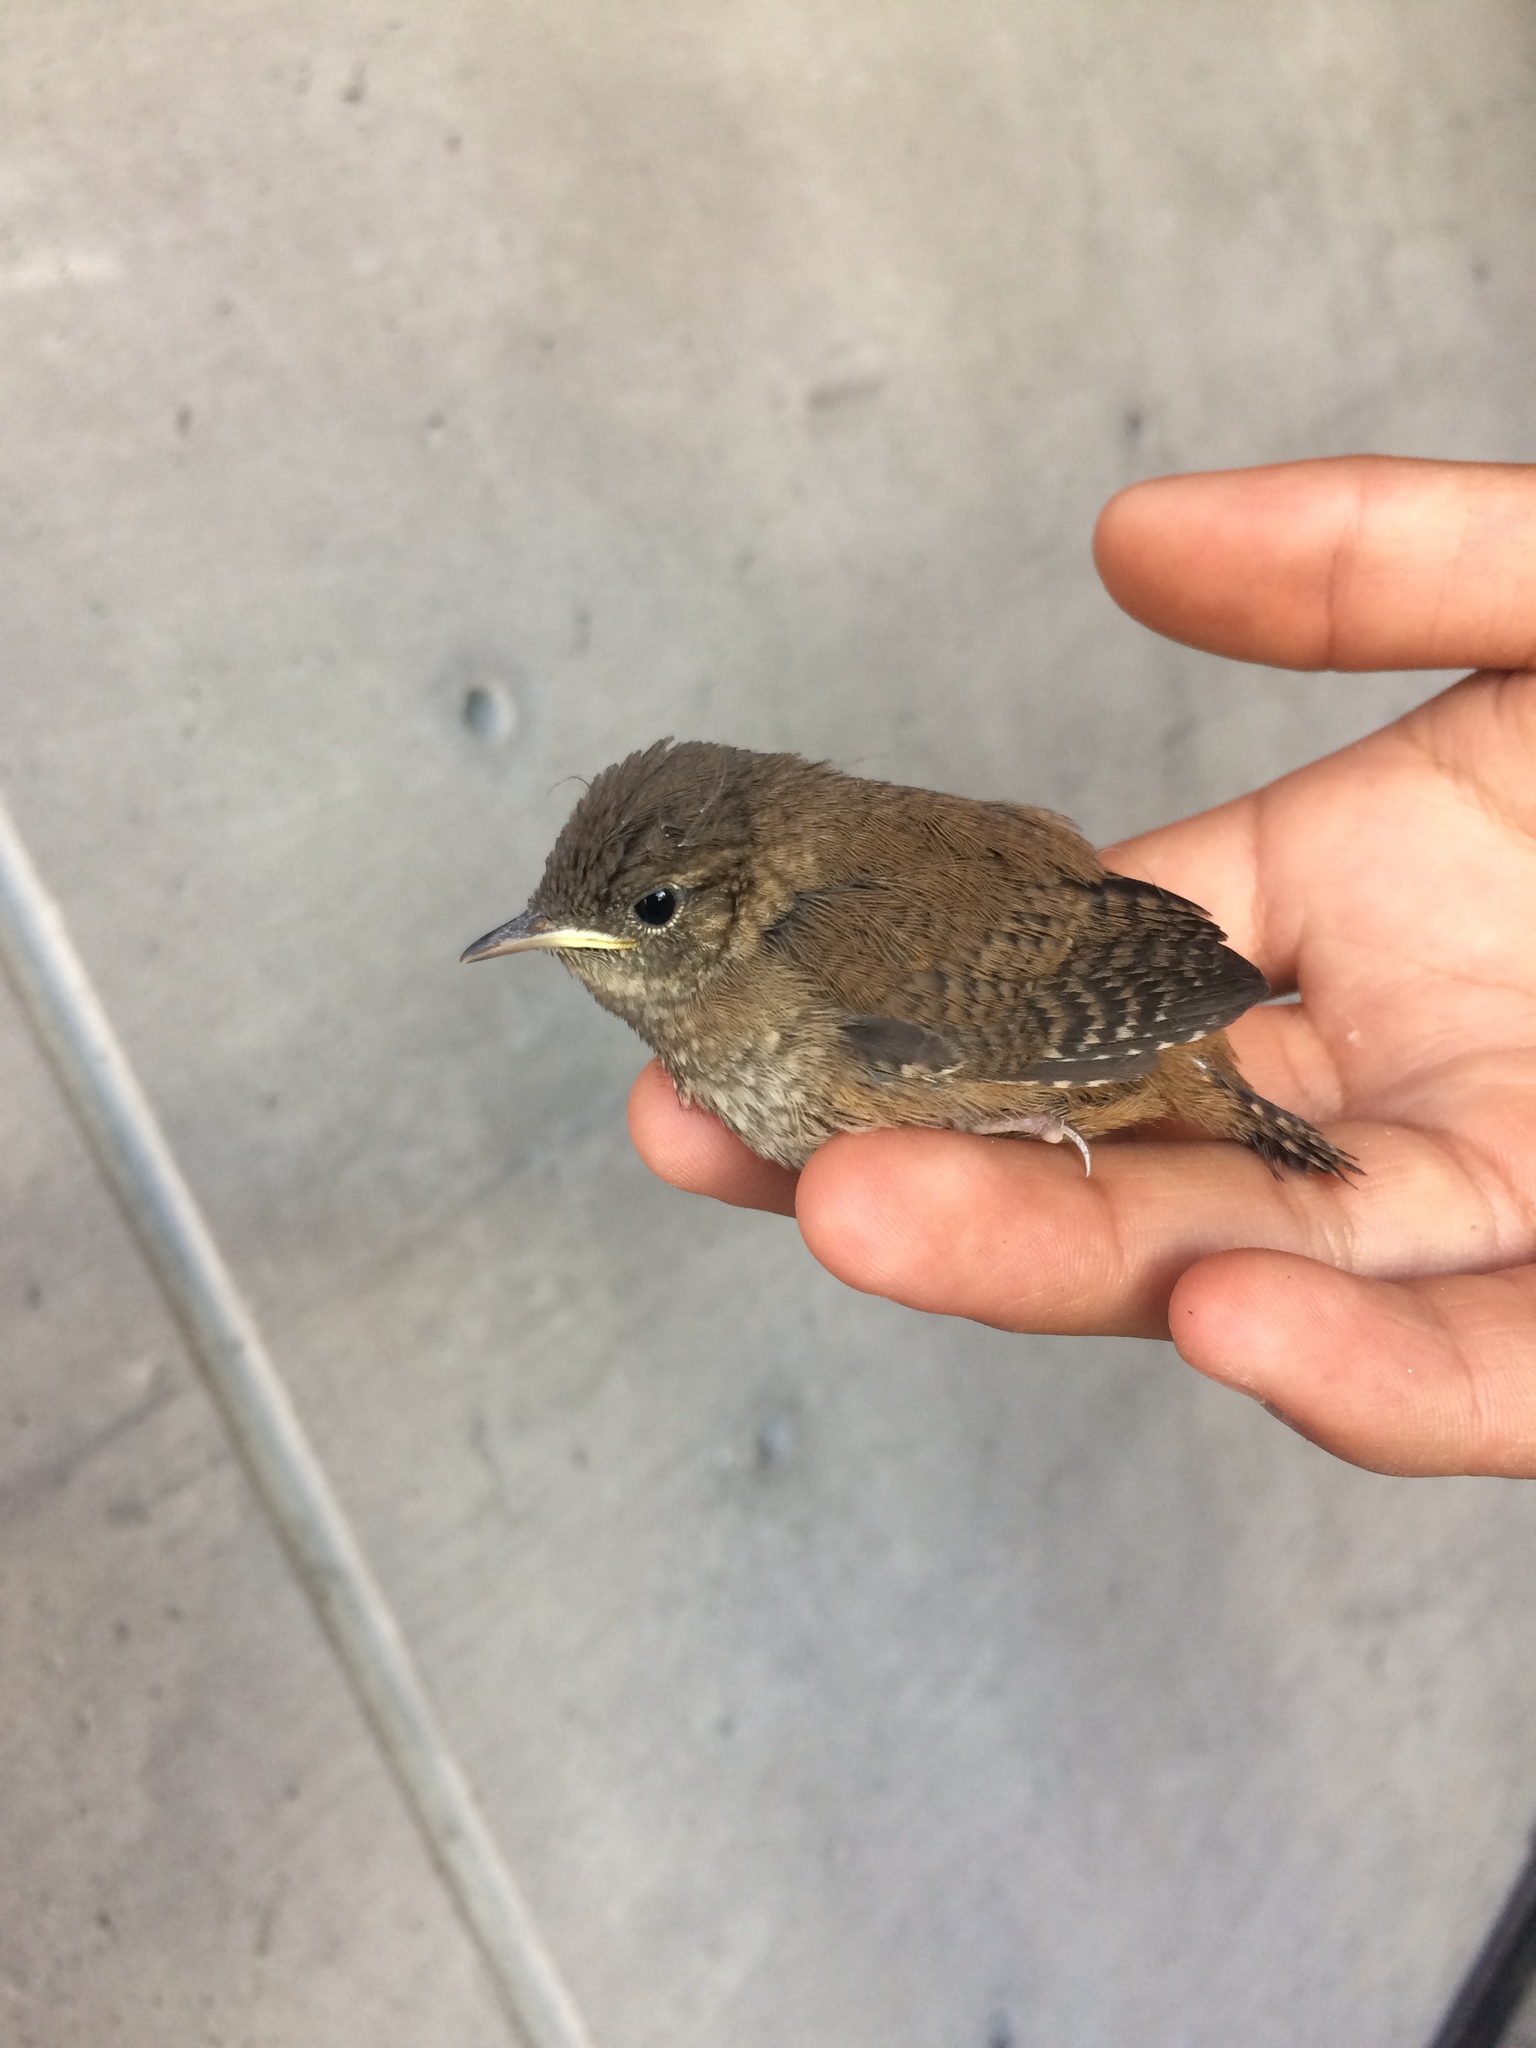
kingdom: Animalia
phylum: Chordata
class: Aves
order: Passeriformes
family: Troglodytidae
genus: Troglodytes
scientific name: Troglodytes aedon
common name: House wren
